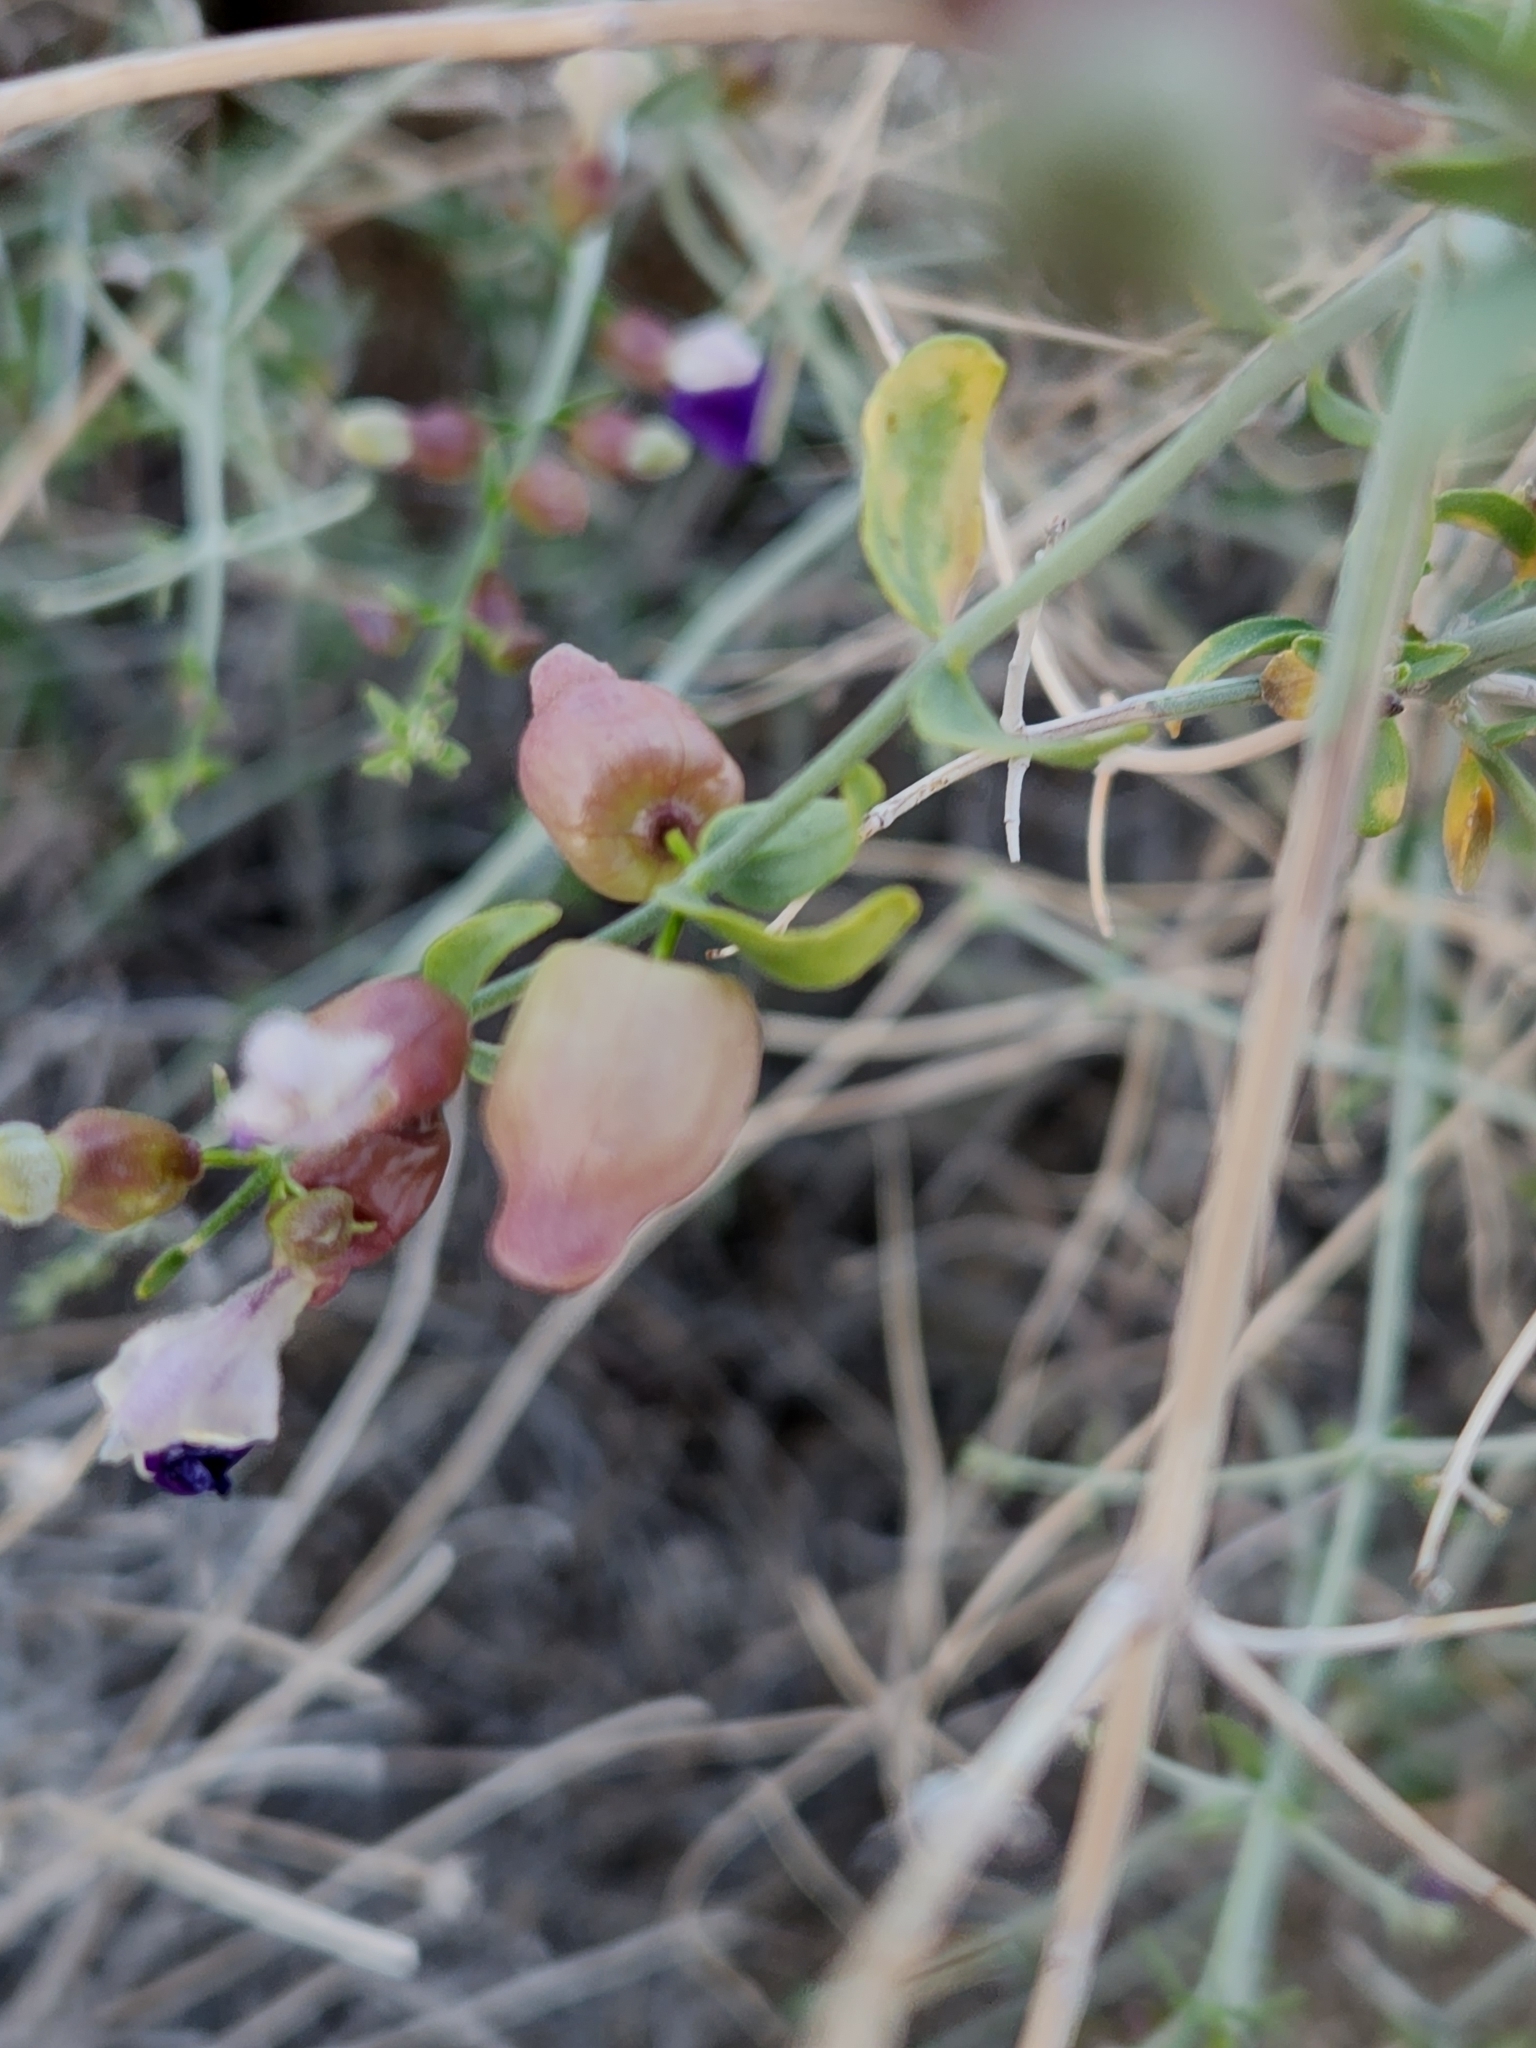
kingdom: Plantae
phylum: Tracheophyta
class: Magnoliopsida
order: Lamiales
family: Lamiaceae
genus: Scutellaria
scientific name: Scutellaria mexicana
